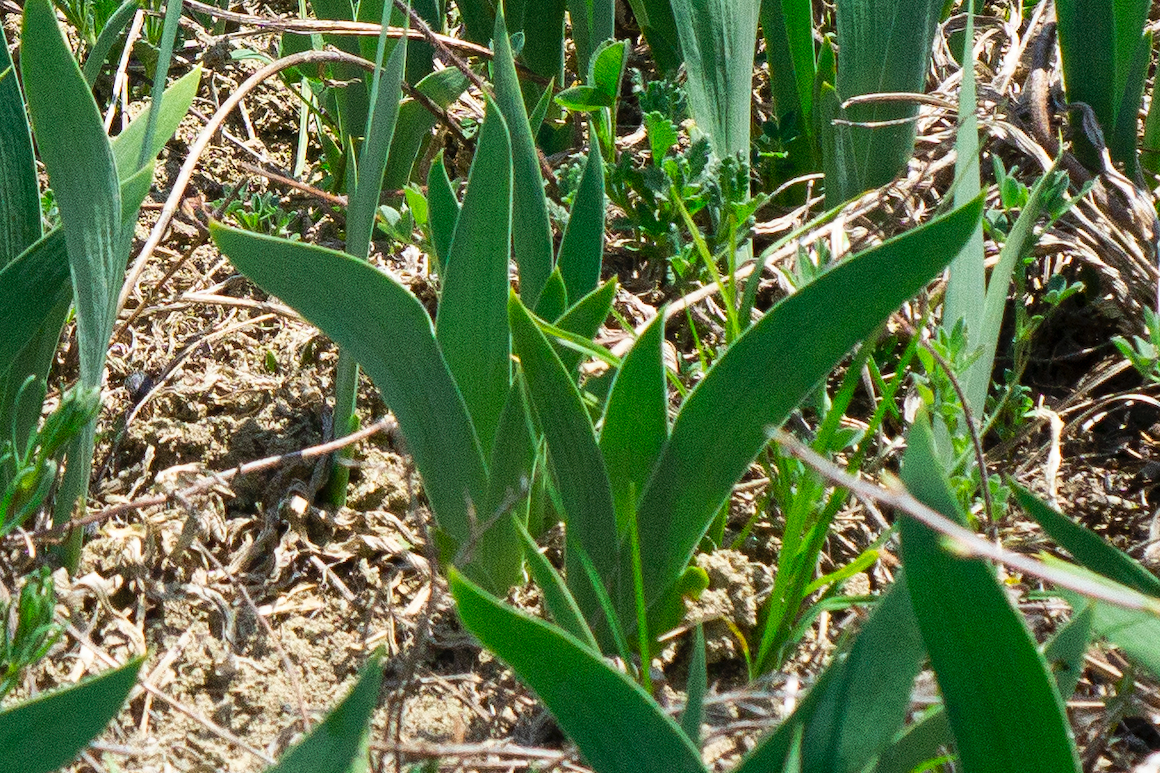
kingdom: Plantae
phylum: Tracheophyta
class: Liliopsida
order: Asparagales
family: Iridaceae
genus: Iris
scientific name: Iris aphylla
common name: Stool iris
